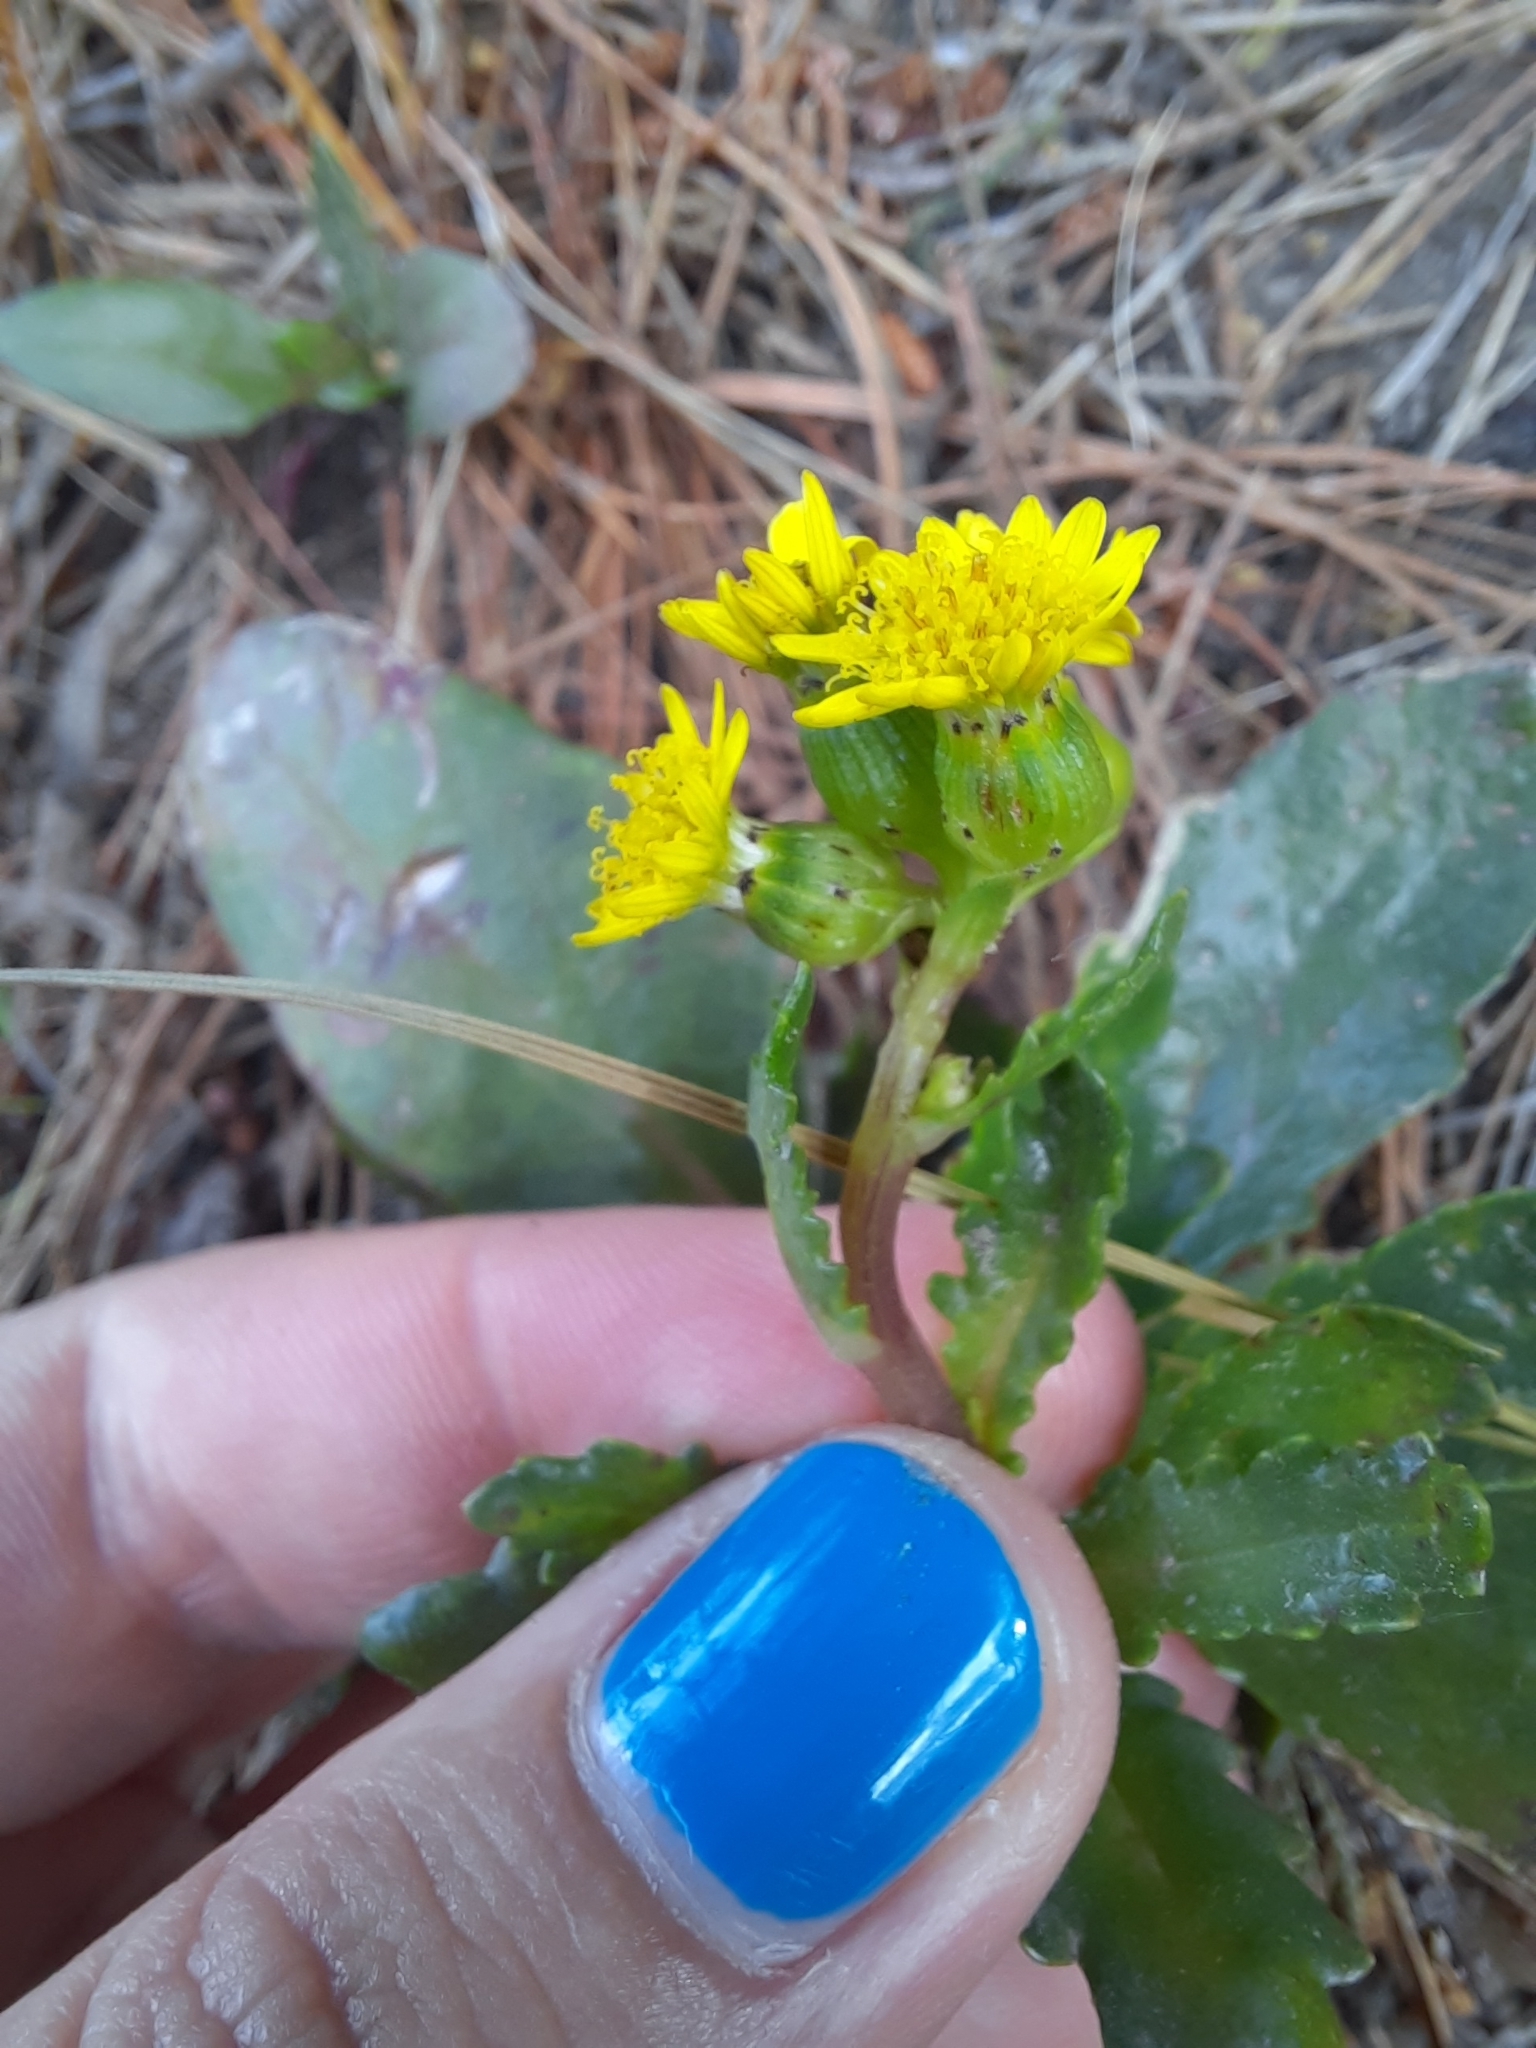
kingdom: Plantae
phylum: Tracheophyta
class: Magnoliopsida
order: Asterales
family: Asteraceae
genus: Senecio
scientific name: Senecio marotiri
